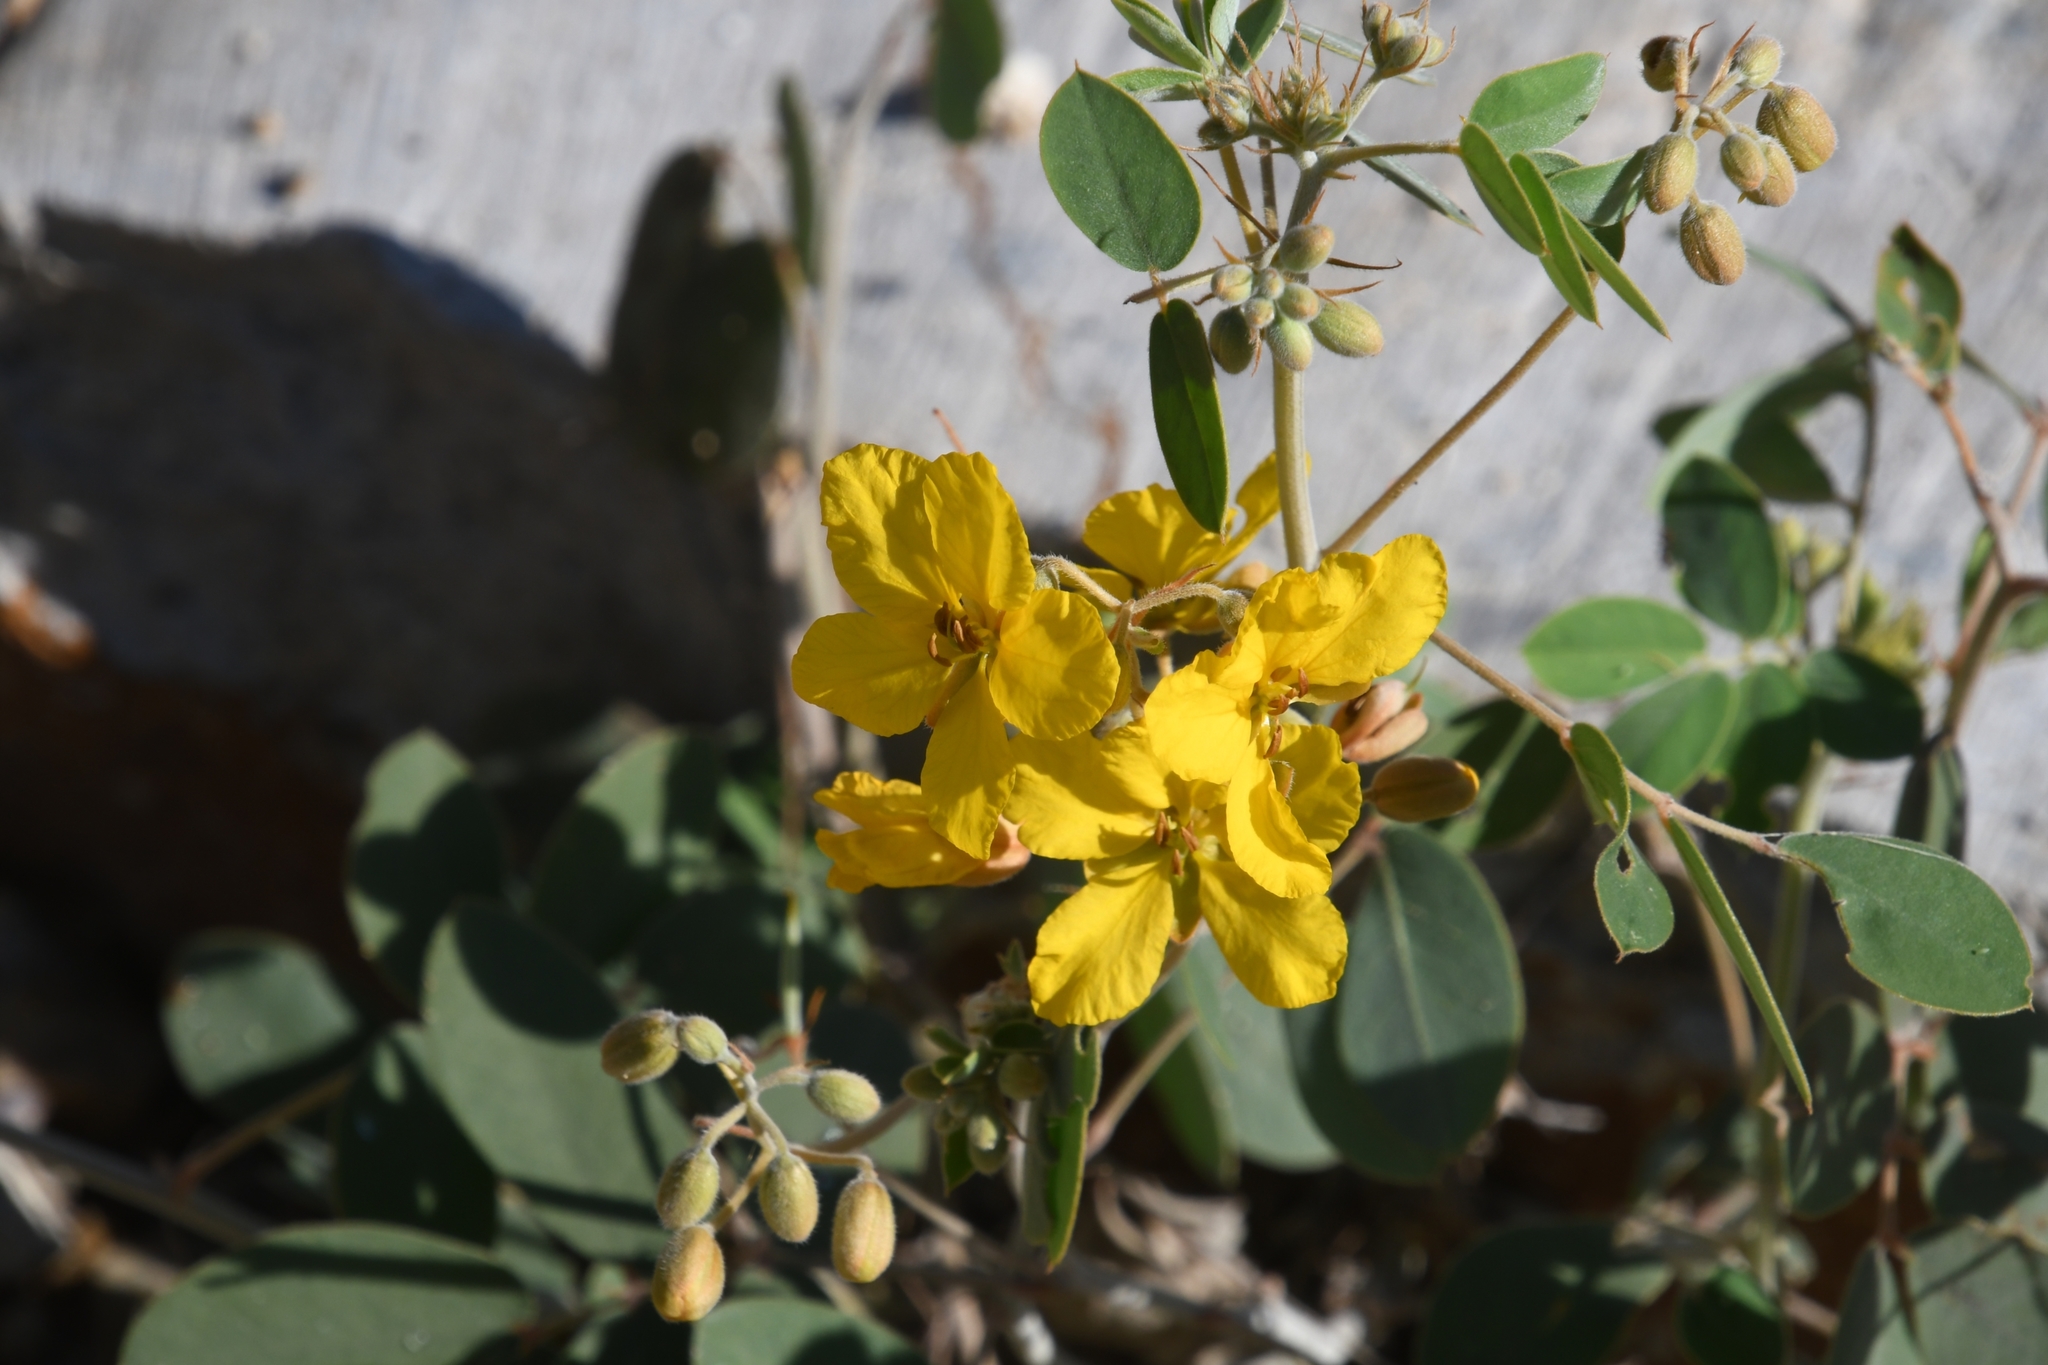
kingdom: Plantae
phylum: Tracheophyta
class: Magnoliopsida
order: Fabales
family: Fabaceae
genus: Senna
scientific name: Senna covesii
